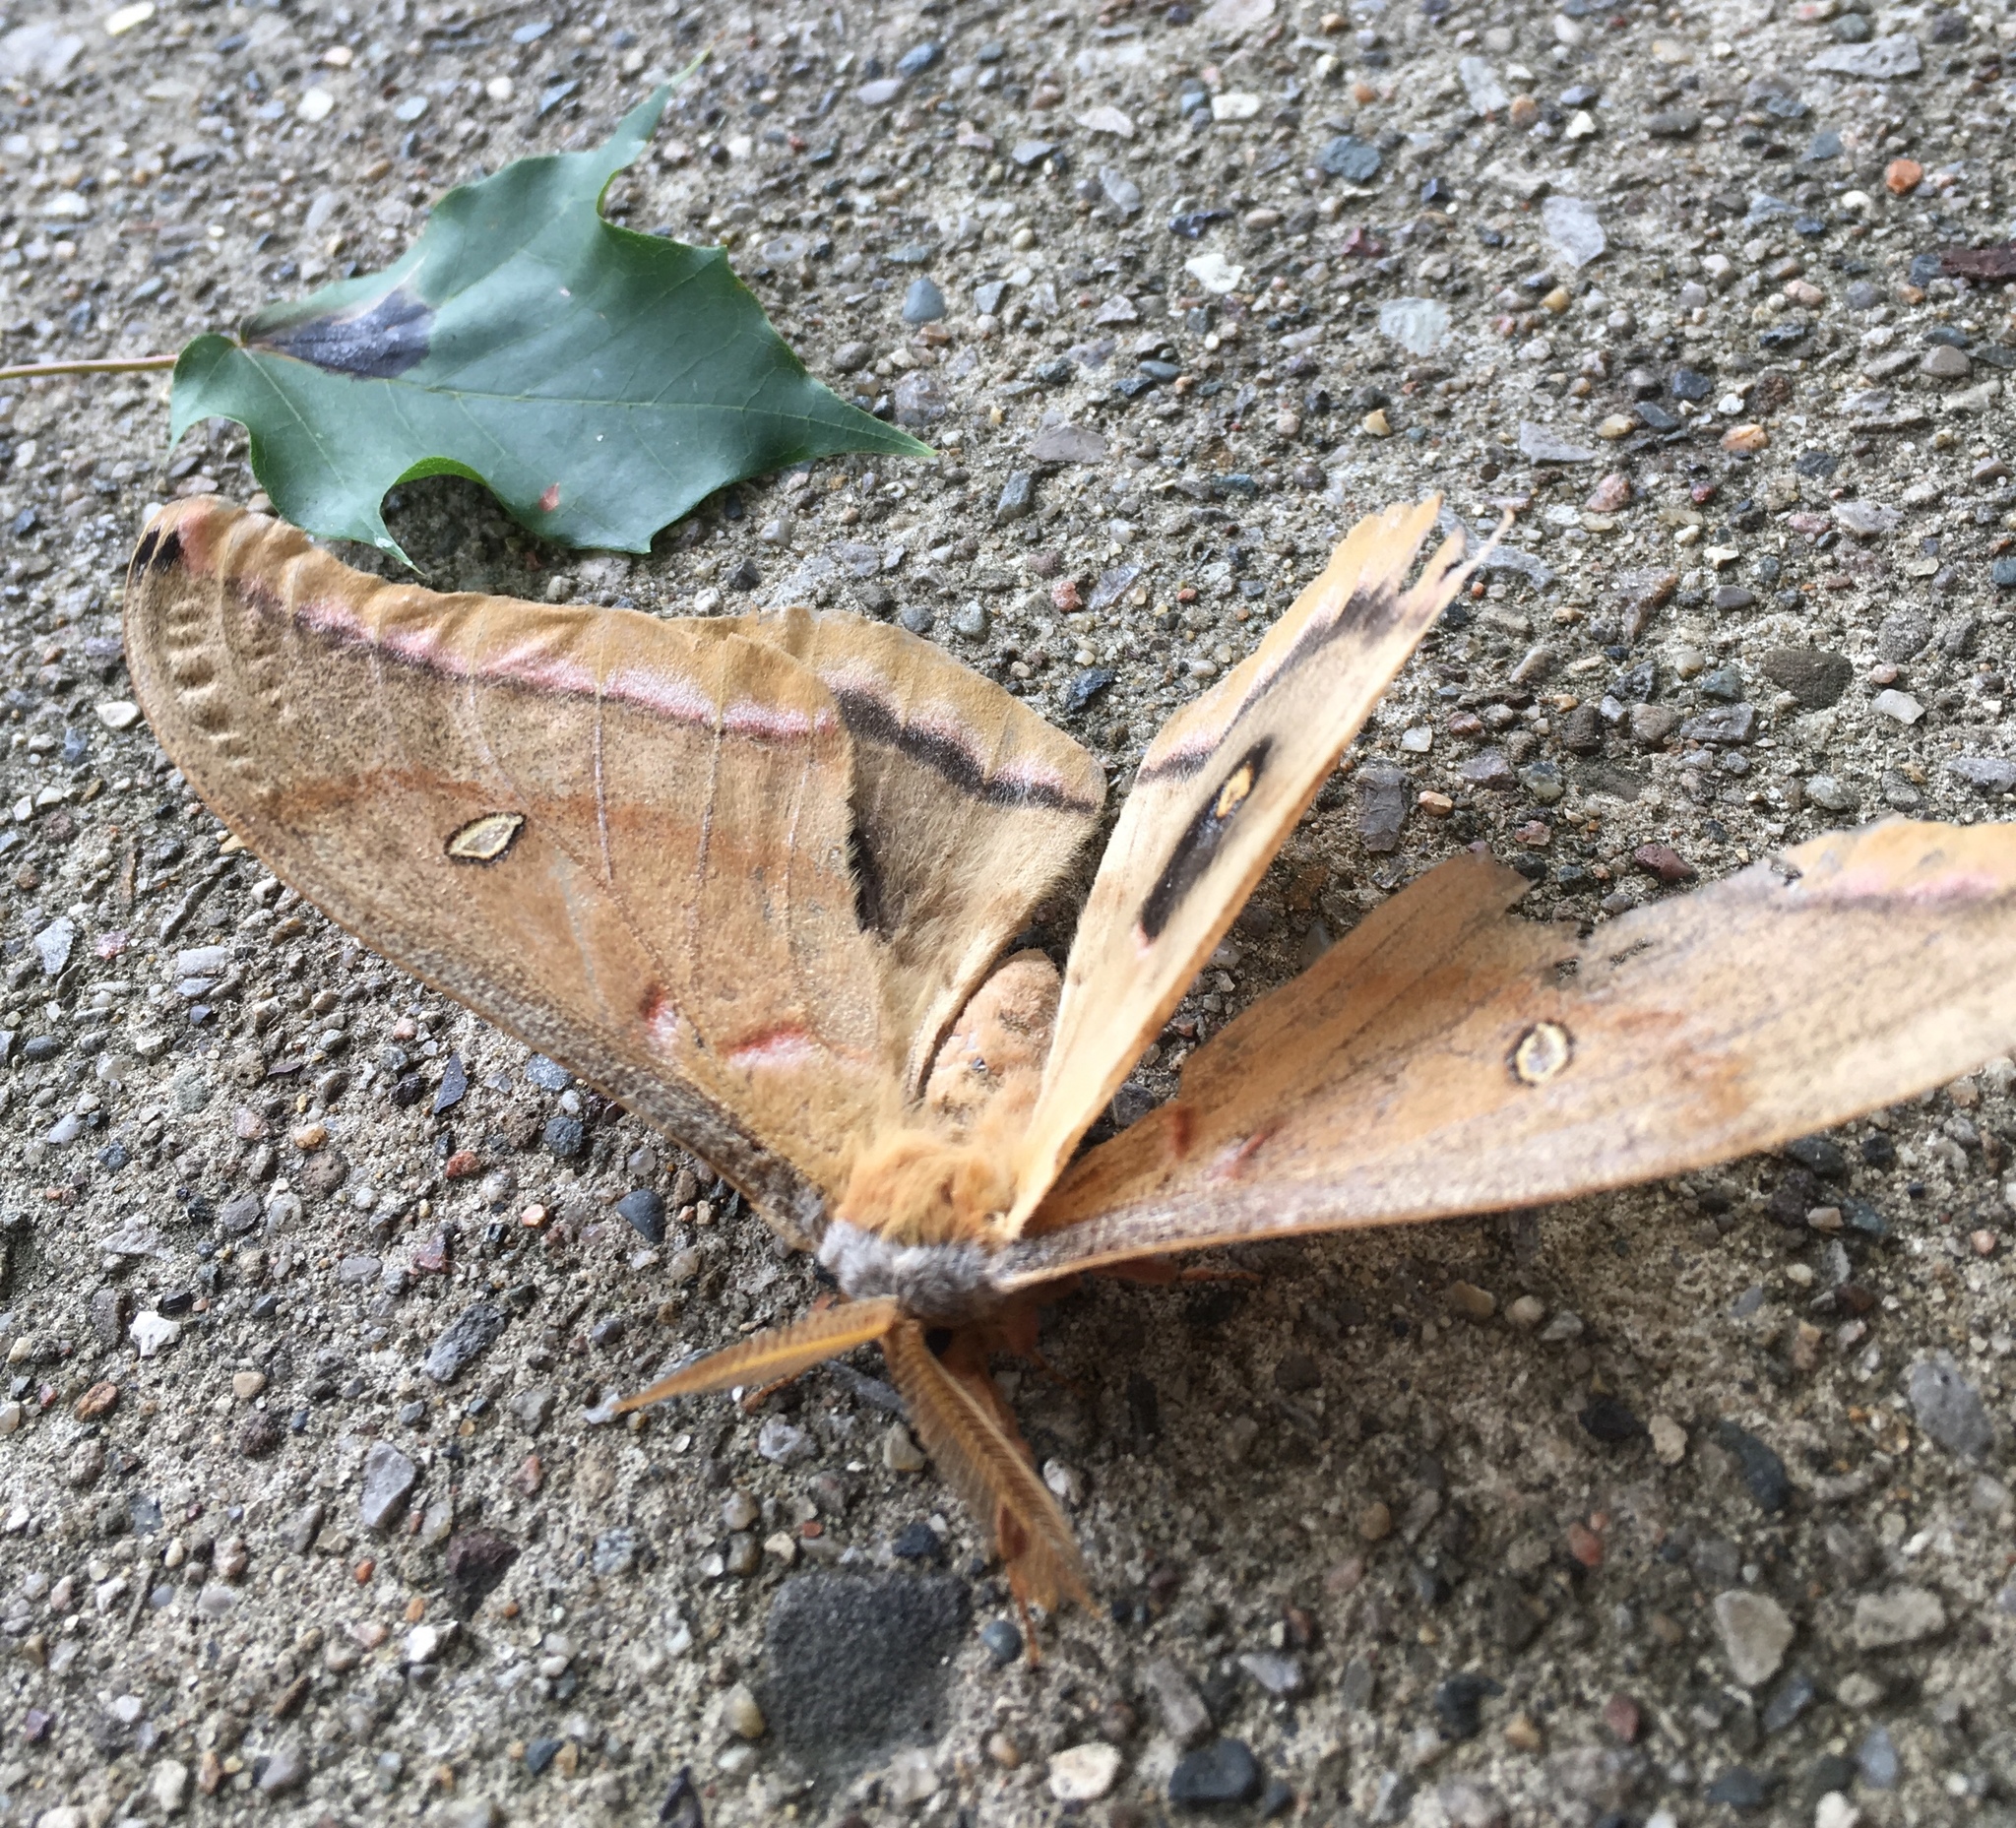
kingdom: Animalia
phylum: Arthropoda
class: Insecta
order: Lepidoptera
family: Saturniidae
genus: Antheraea
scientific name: Antheraea polyphemus
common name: Polyphemus moth
